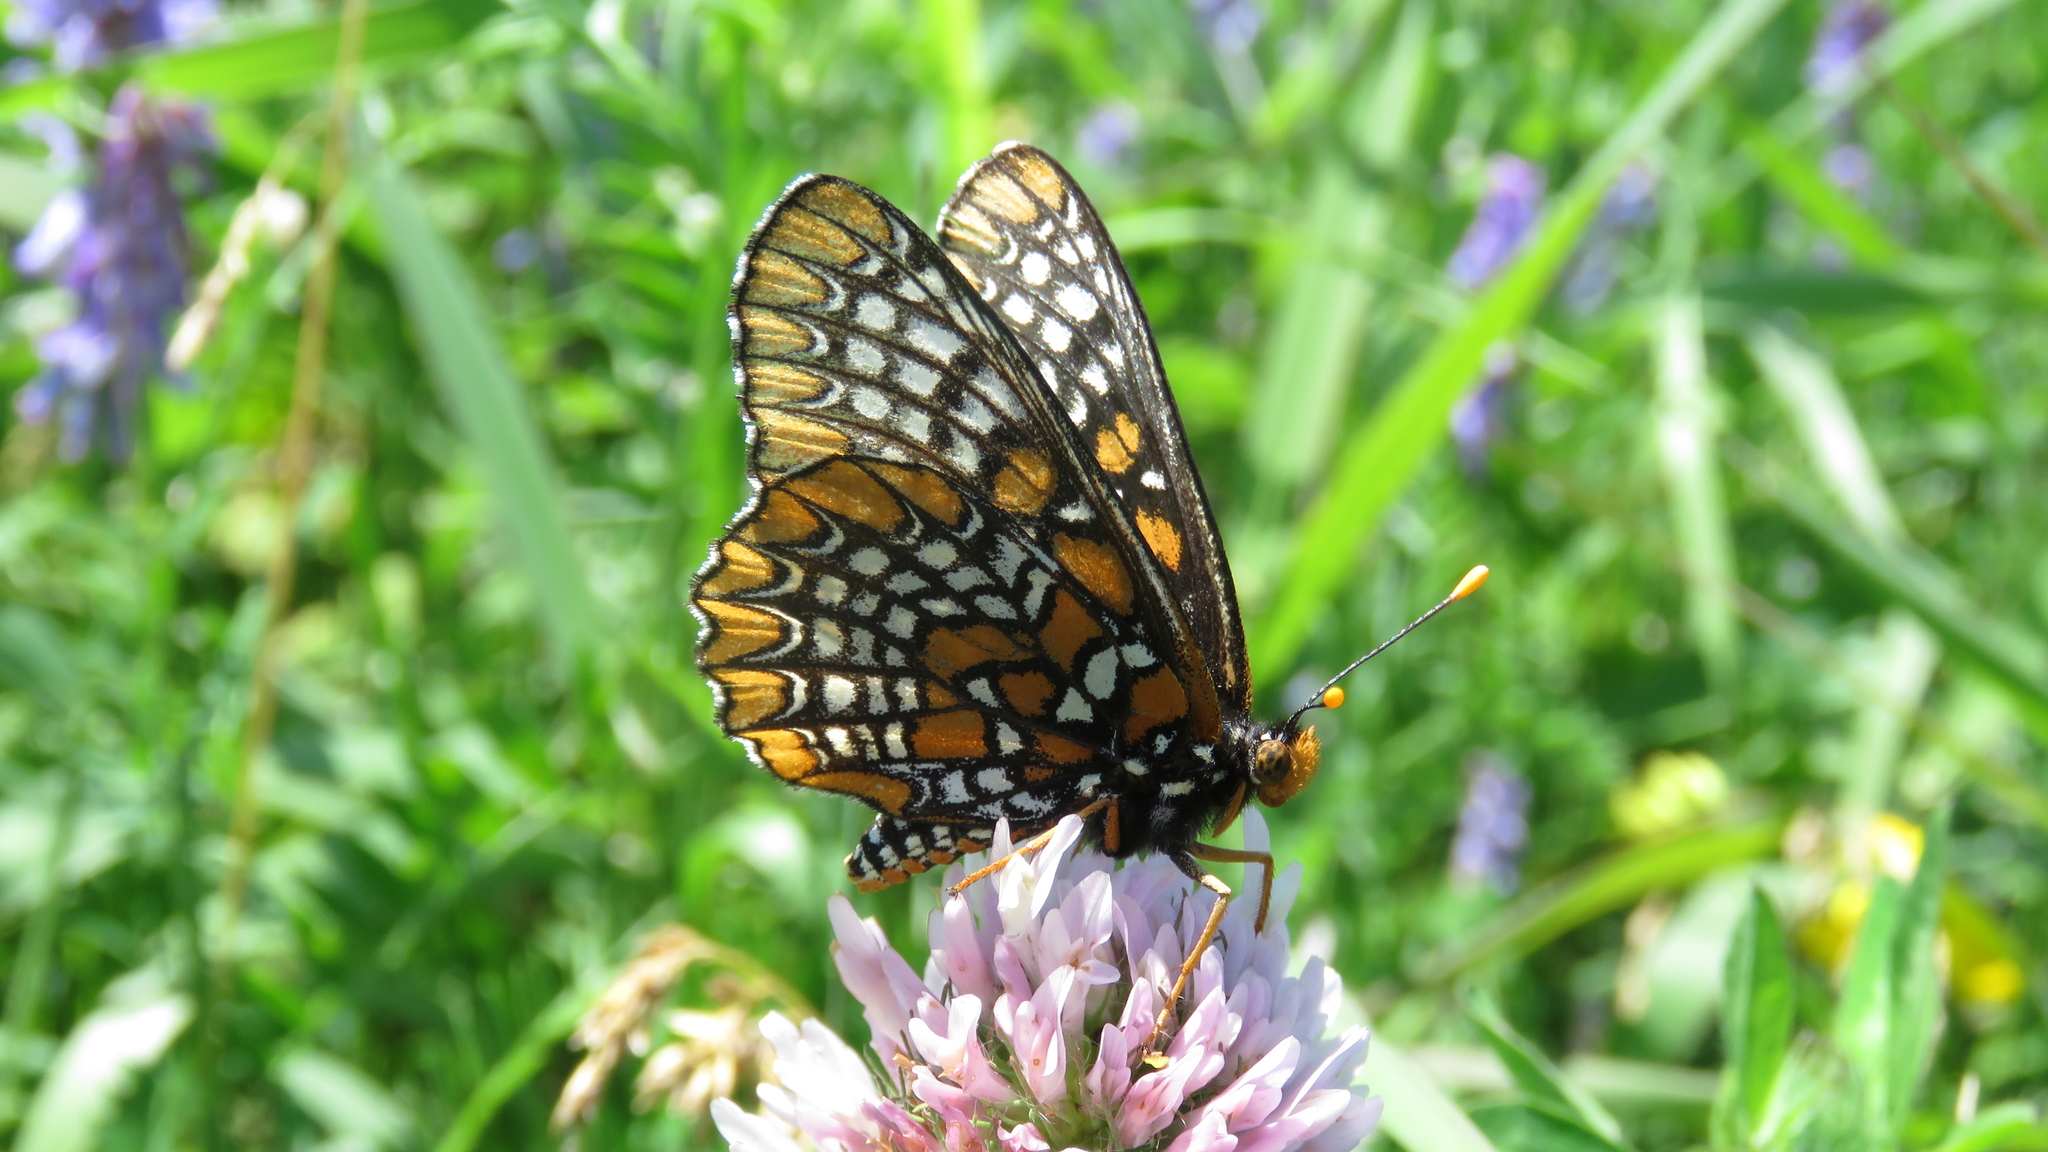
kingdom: Animalia
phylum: Arthropoda
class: Insecta
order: Lepidoptera
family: Nymphalidae
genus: Euphydryas
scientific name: Euphydryas phaeton
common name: Baltimore checkerspot
